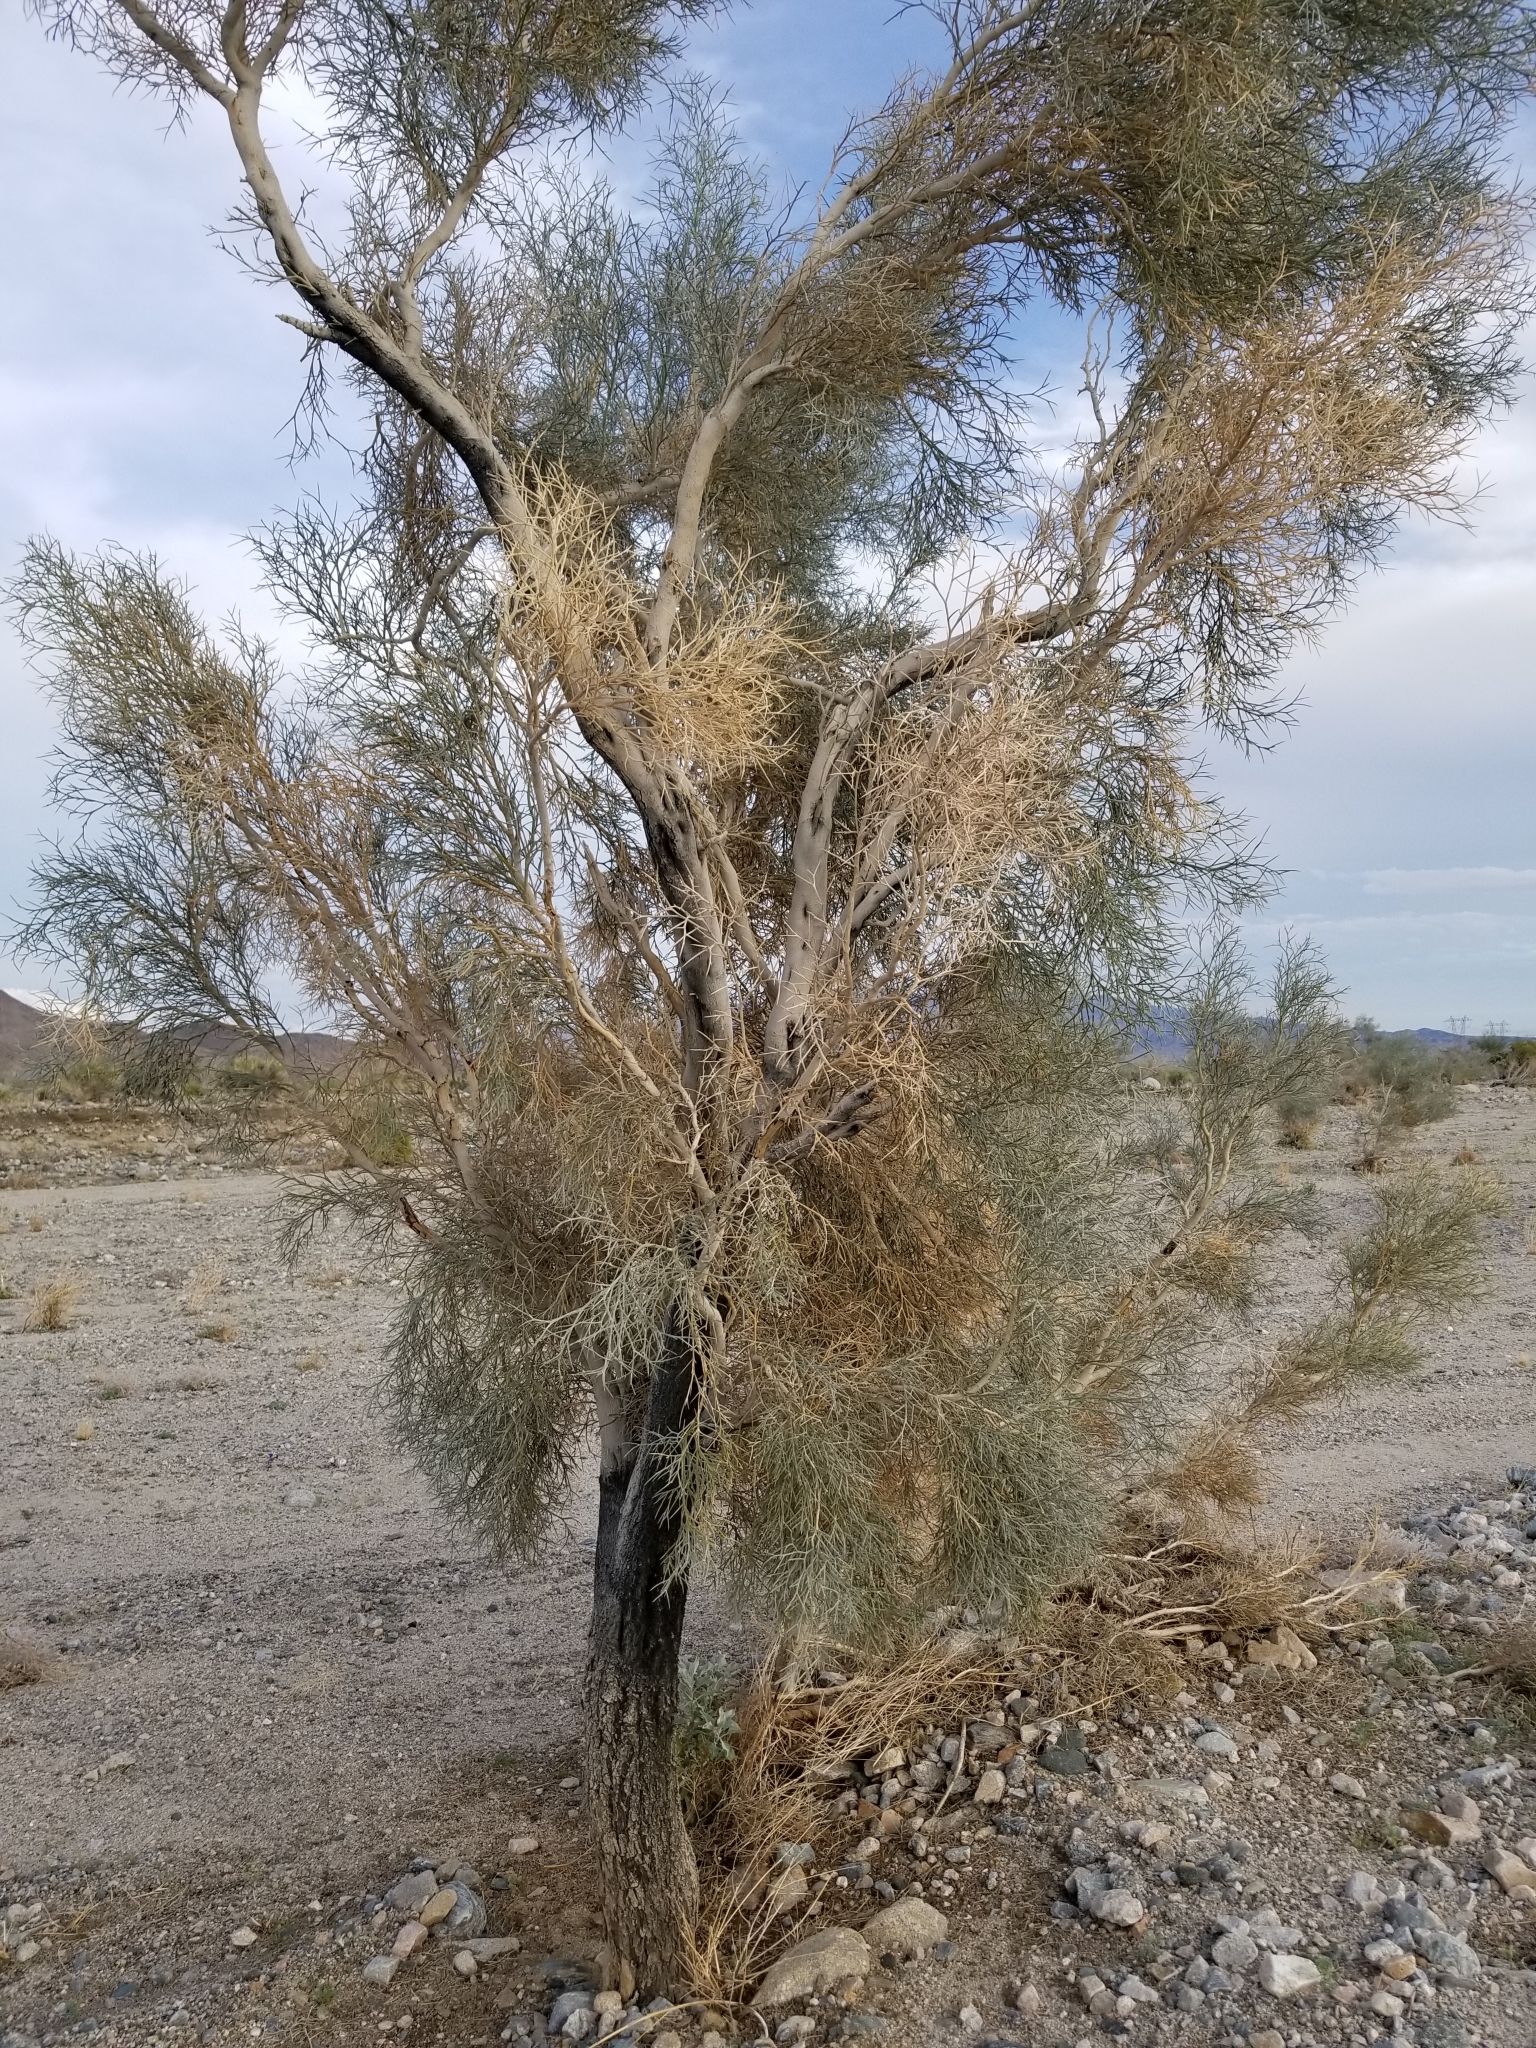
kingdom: Plantae
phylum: Tracheophyta
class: Magnoliopsida
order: Fabales
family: Fabaceae
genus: Psorothamnus
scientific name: Psorothamnus spinosus
